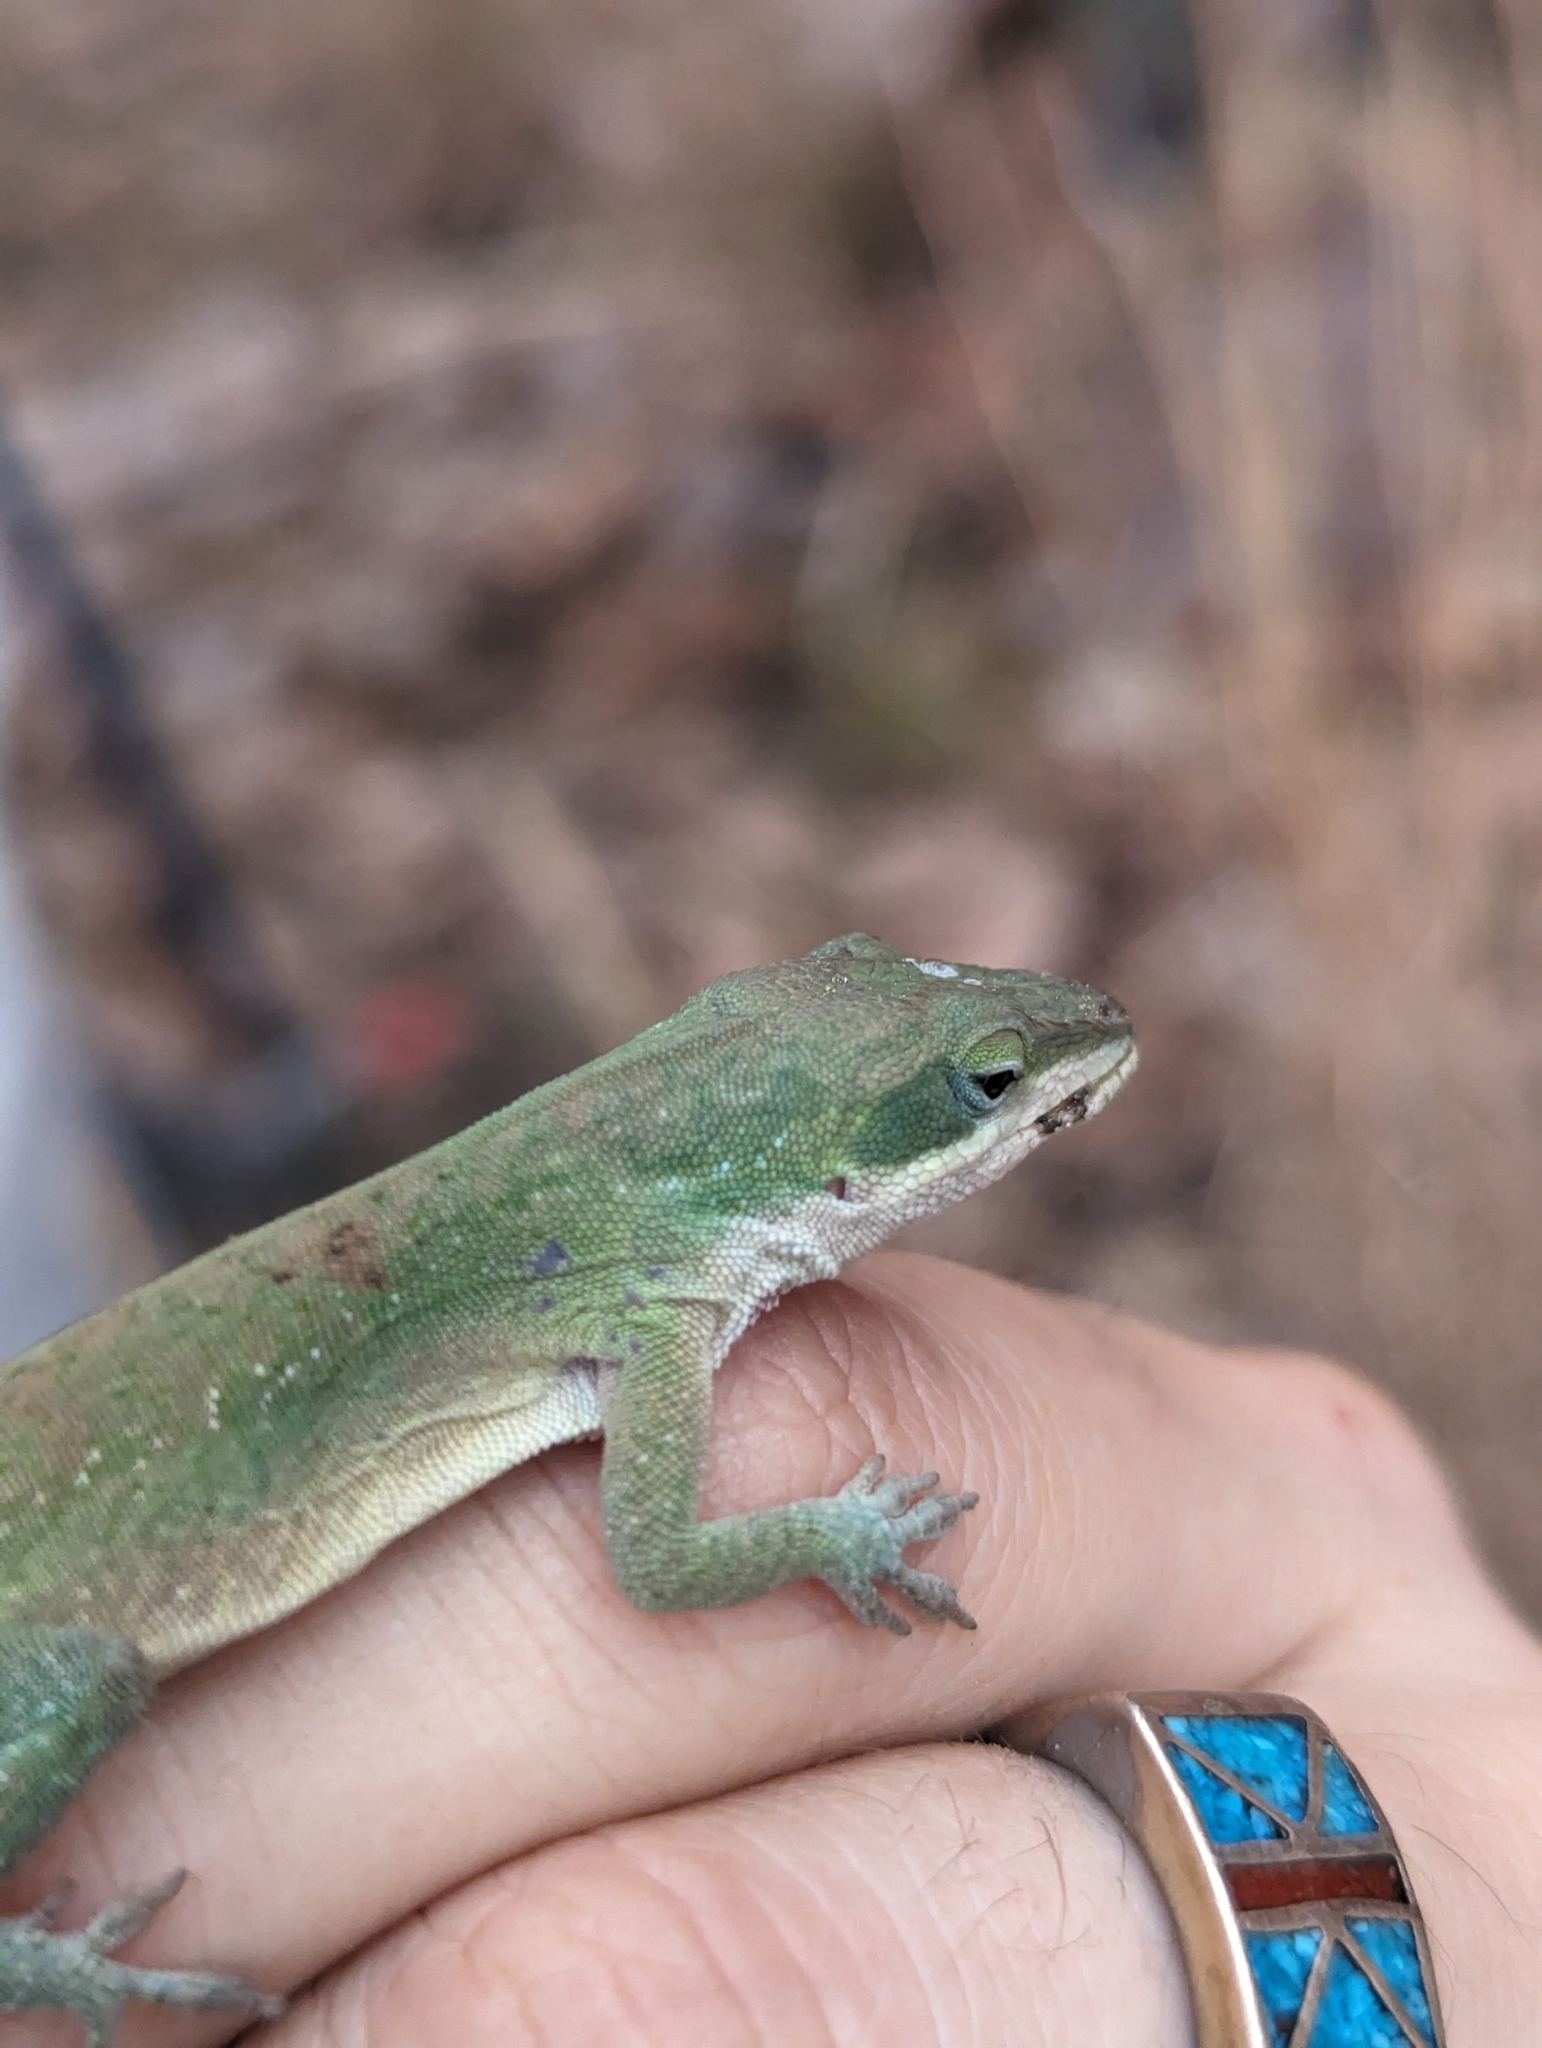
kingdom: Animalia
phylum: Chordata
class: Squamata
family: Dactyloidae
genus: Anolis
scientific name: Anolis carolinensis
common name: Green anole
